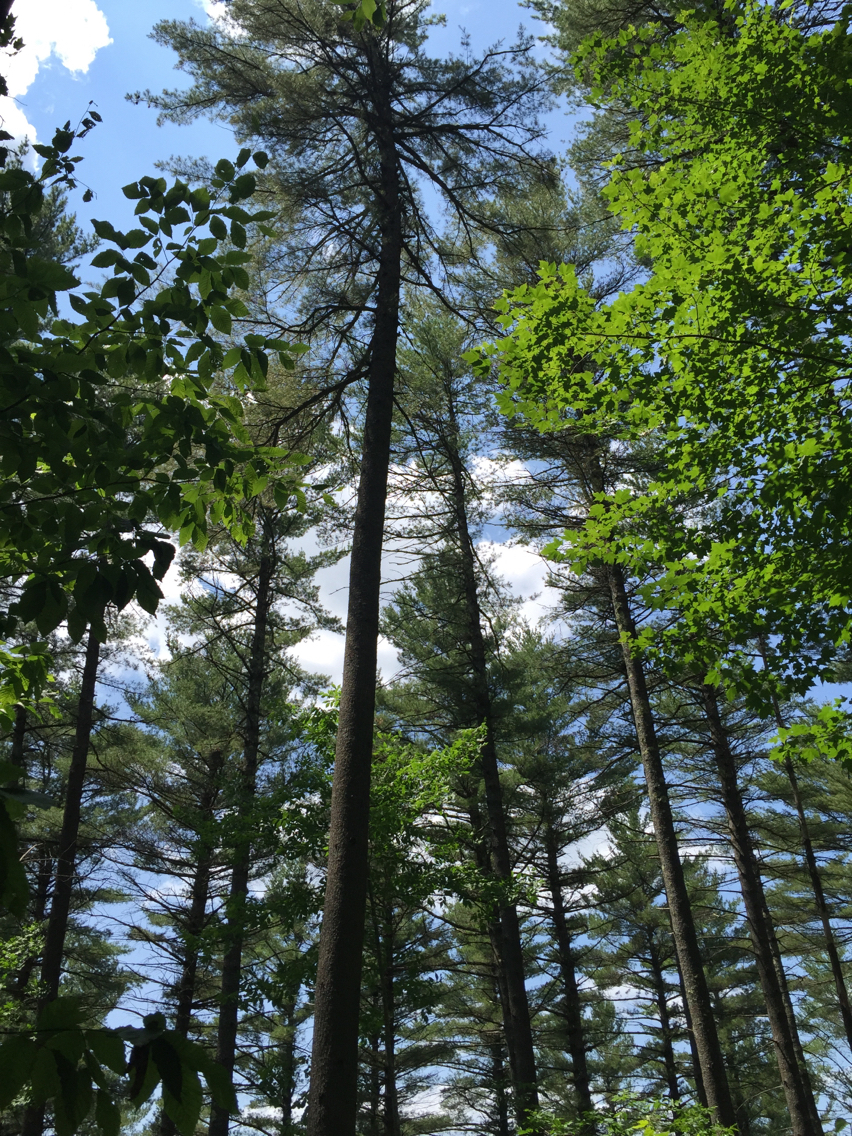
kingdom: Plantae
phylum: Tracheophyta
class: Pinopsida
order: Pinales
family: Pinaceae
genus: Pinus
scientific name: Pinus strobus
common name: Weymouth pine
